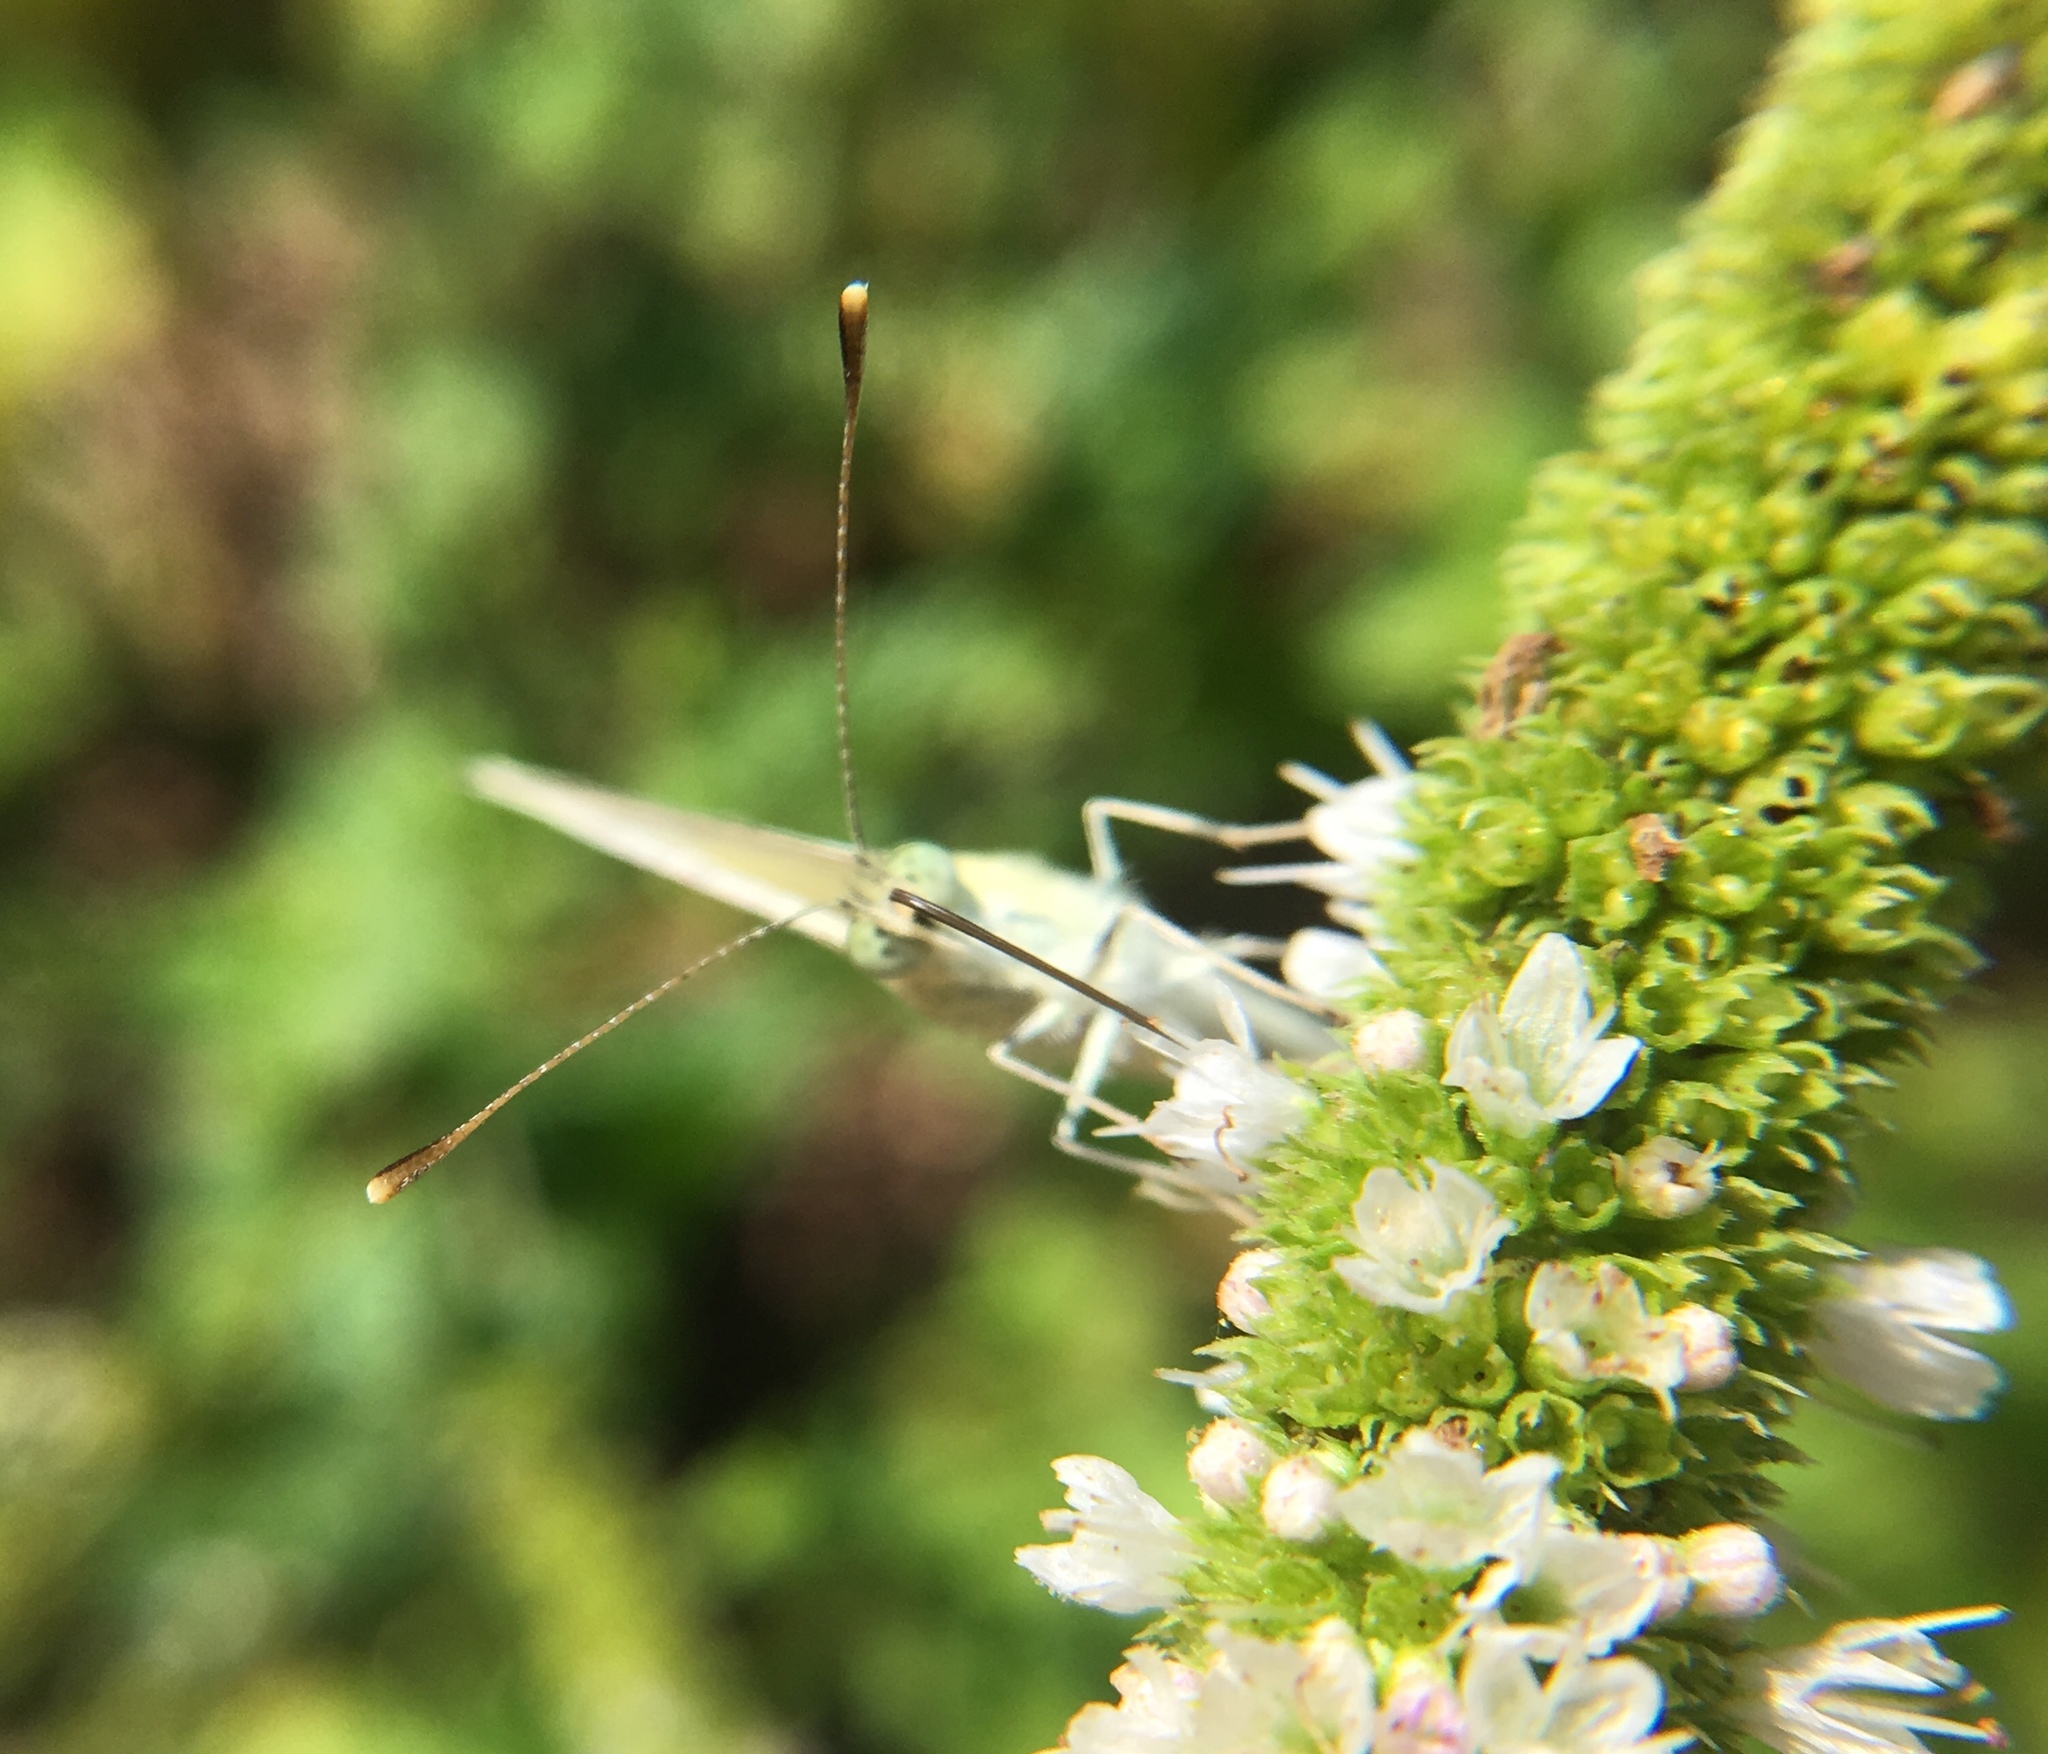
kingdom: Animalia
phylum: Arthropoda
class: Insecta
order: Lepidoptera
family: Pieridae
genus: Pieris
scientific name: Pieris rapae
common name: Small white
